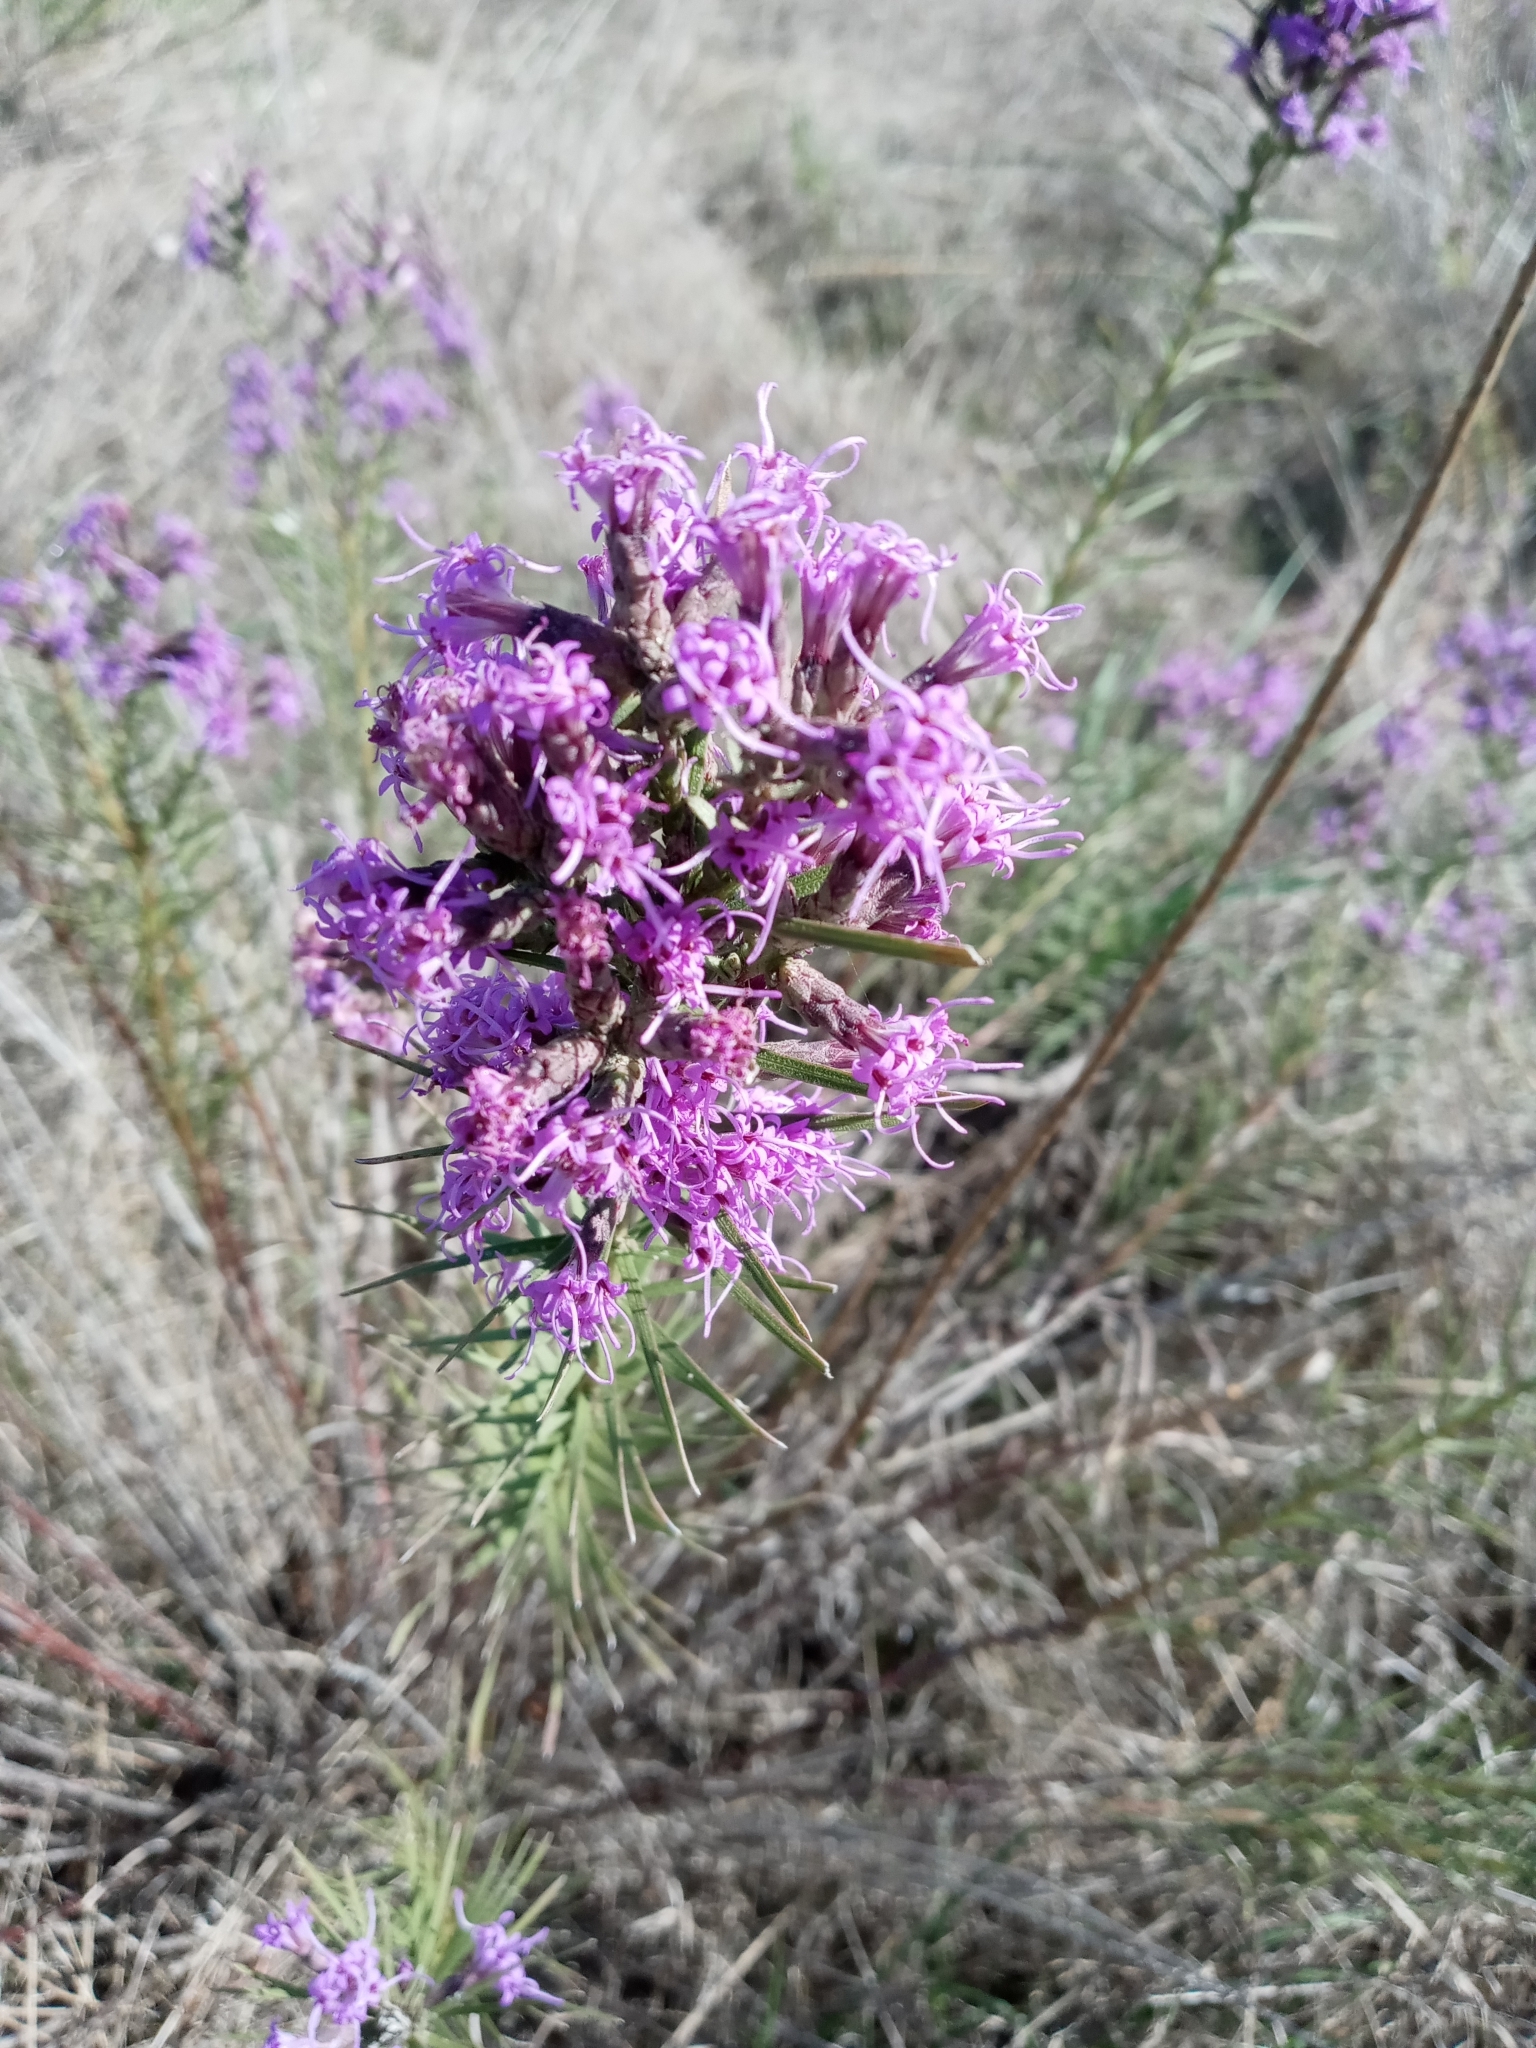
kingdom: Plantae
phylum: Tracheophyta
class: Magnoliopsida
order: Asterales
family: Asteraceae
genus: Liatris
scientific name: Liatris punctata
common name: Dotted gayfeather
